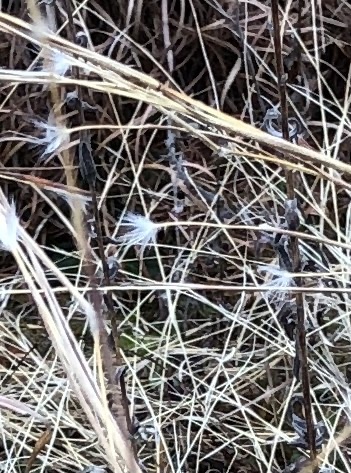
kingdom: Plantae
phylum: Tracheophyta
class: Liliopsida
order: Poales
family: Poaceae
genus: Andropogon
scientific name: Andropogon ternarius
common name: Split bluestem
